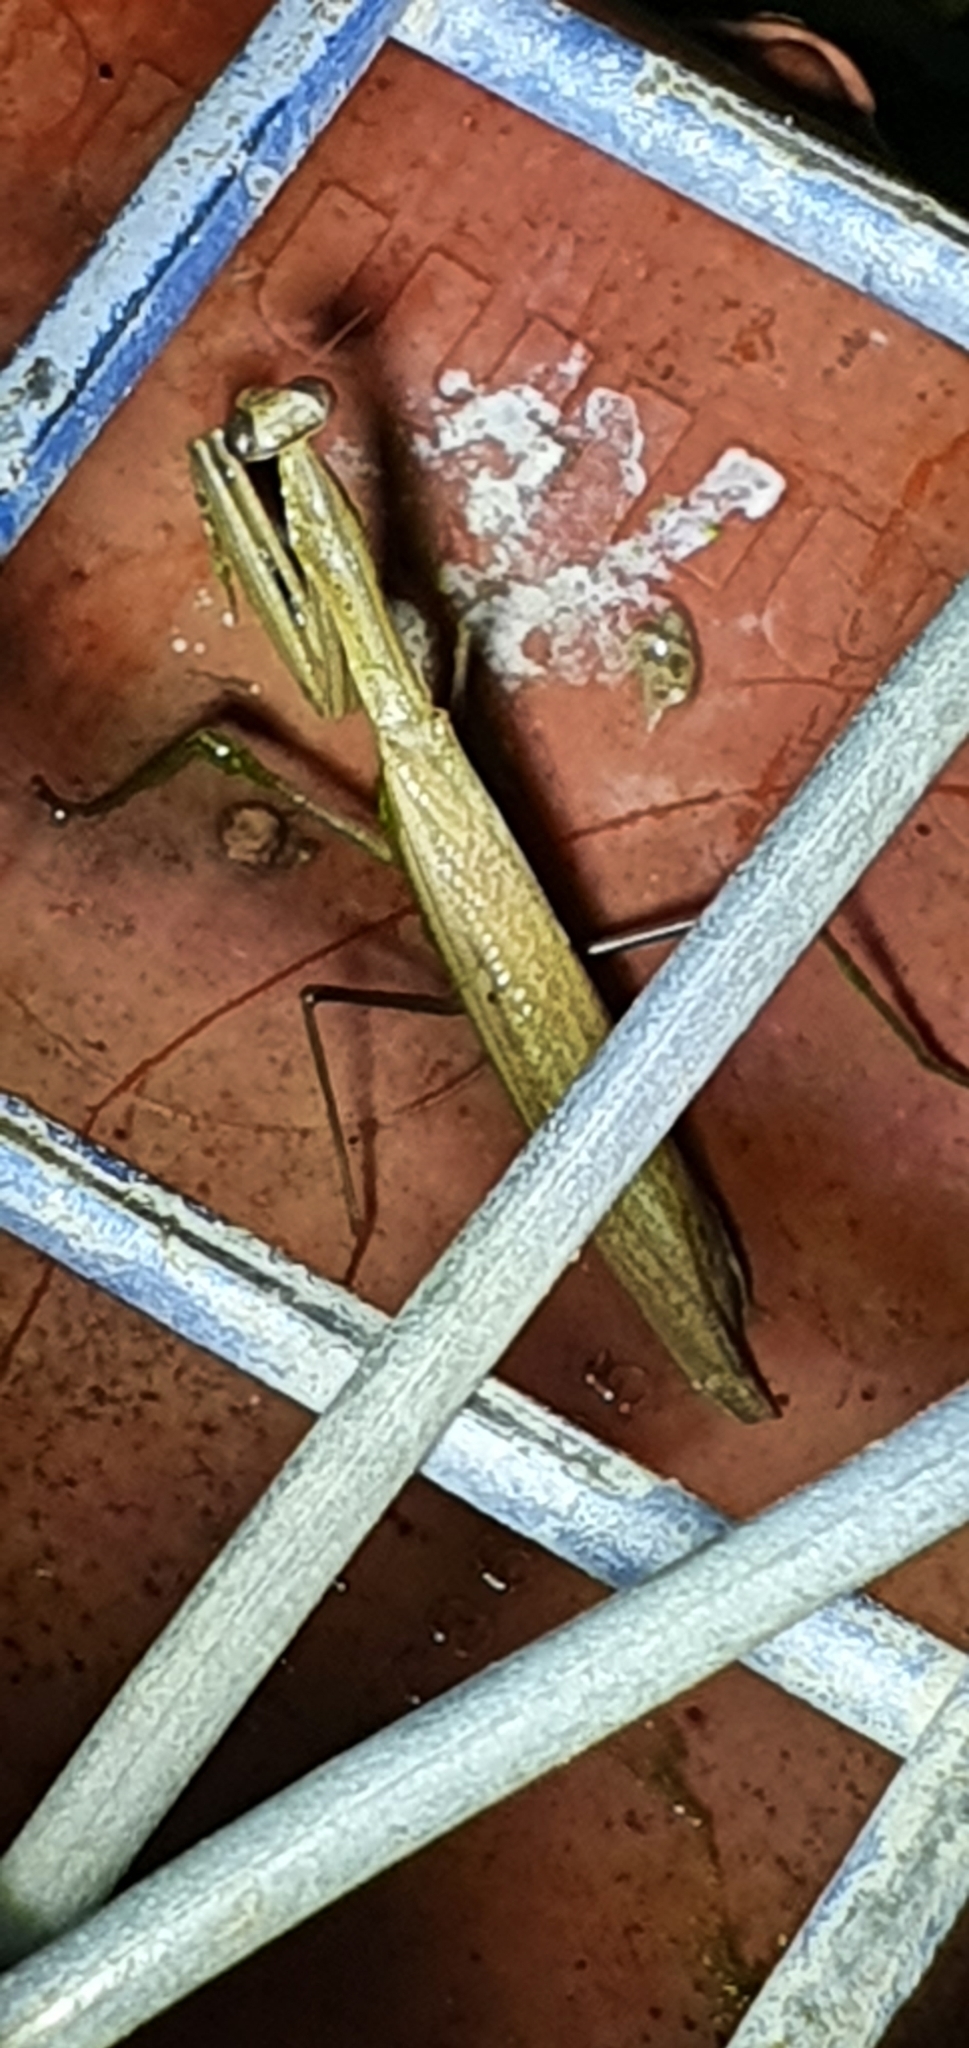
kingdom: Animalia
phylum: Arthropoda
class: Insecta
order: Mantodea
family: Mantidae
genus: Statilia
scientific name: Statilia apicalis
